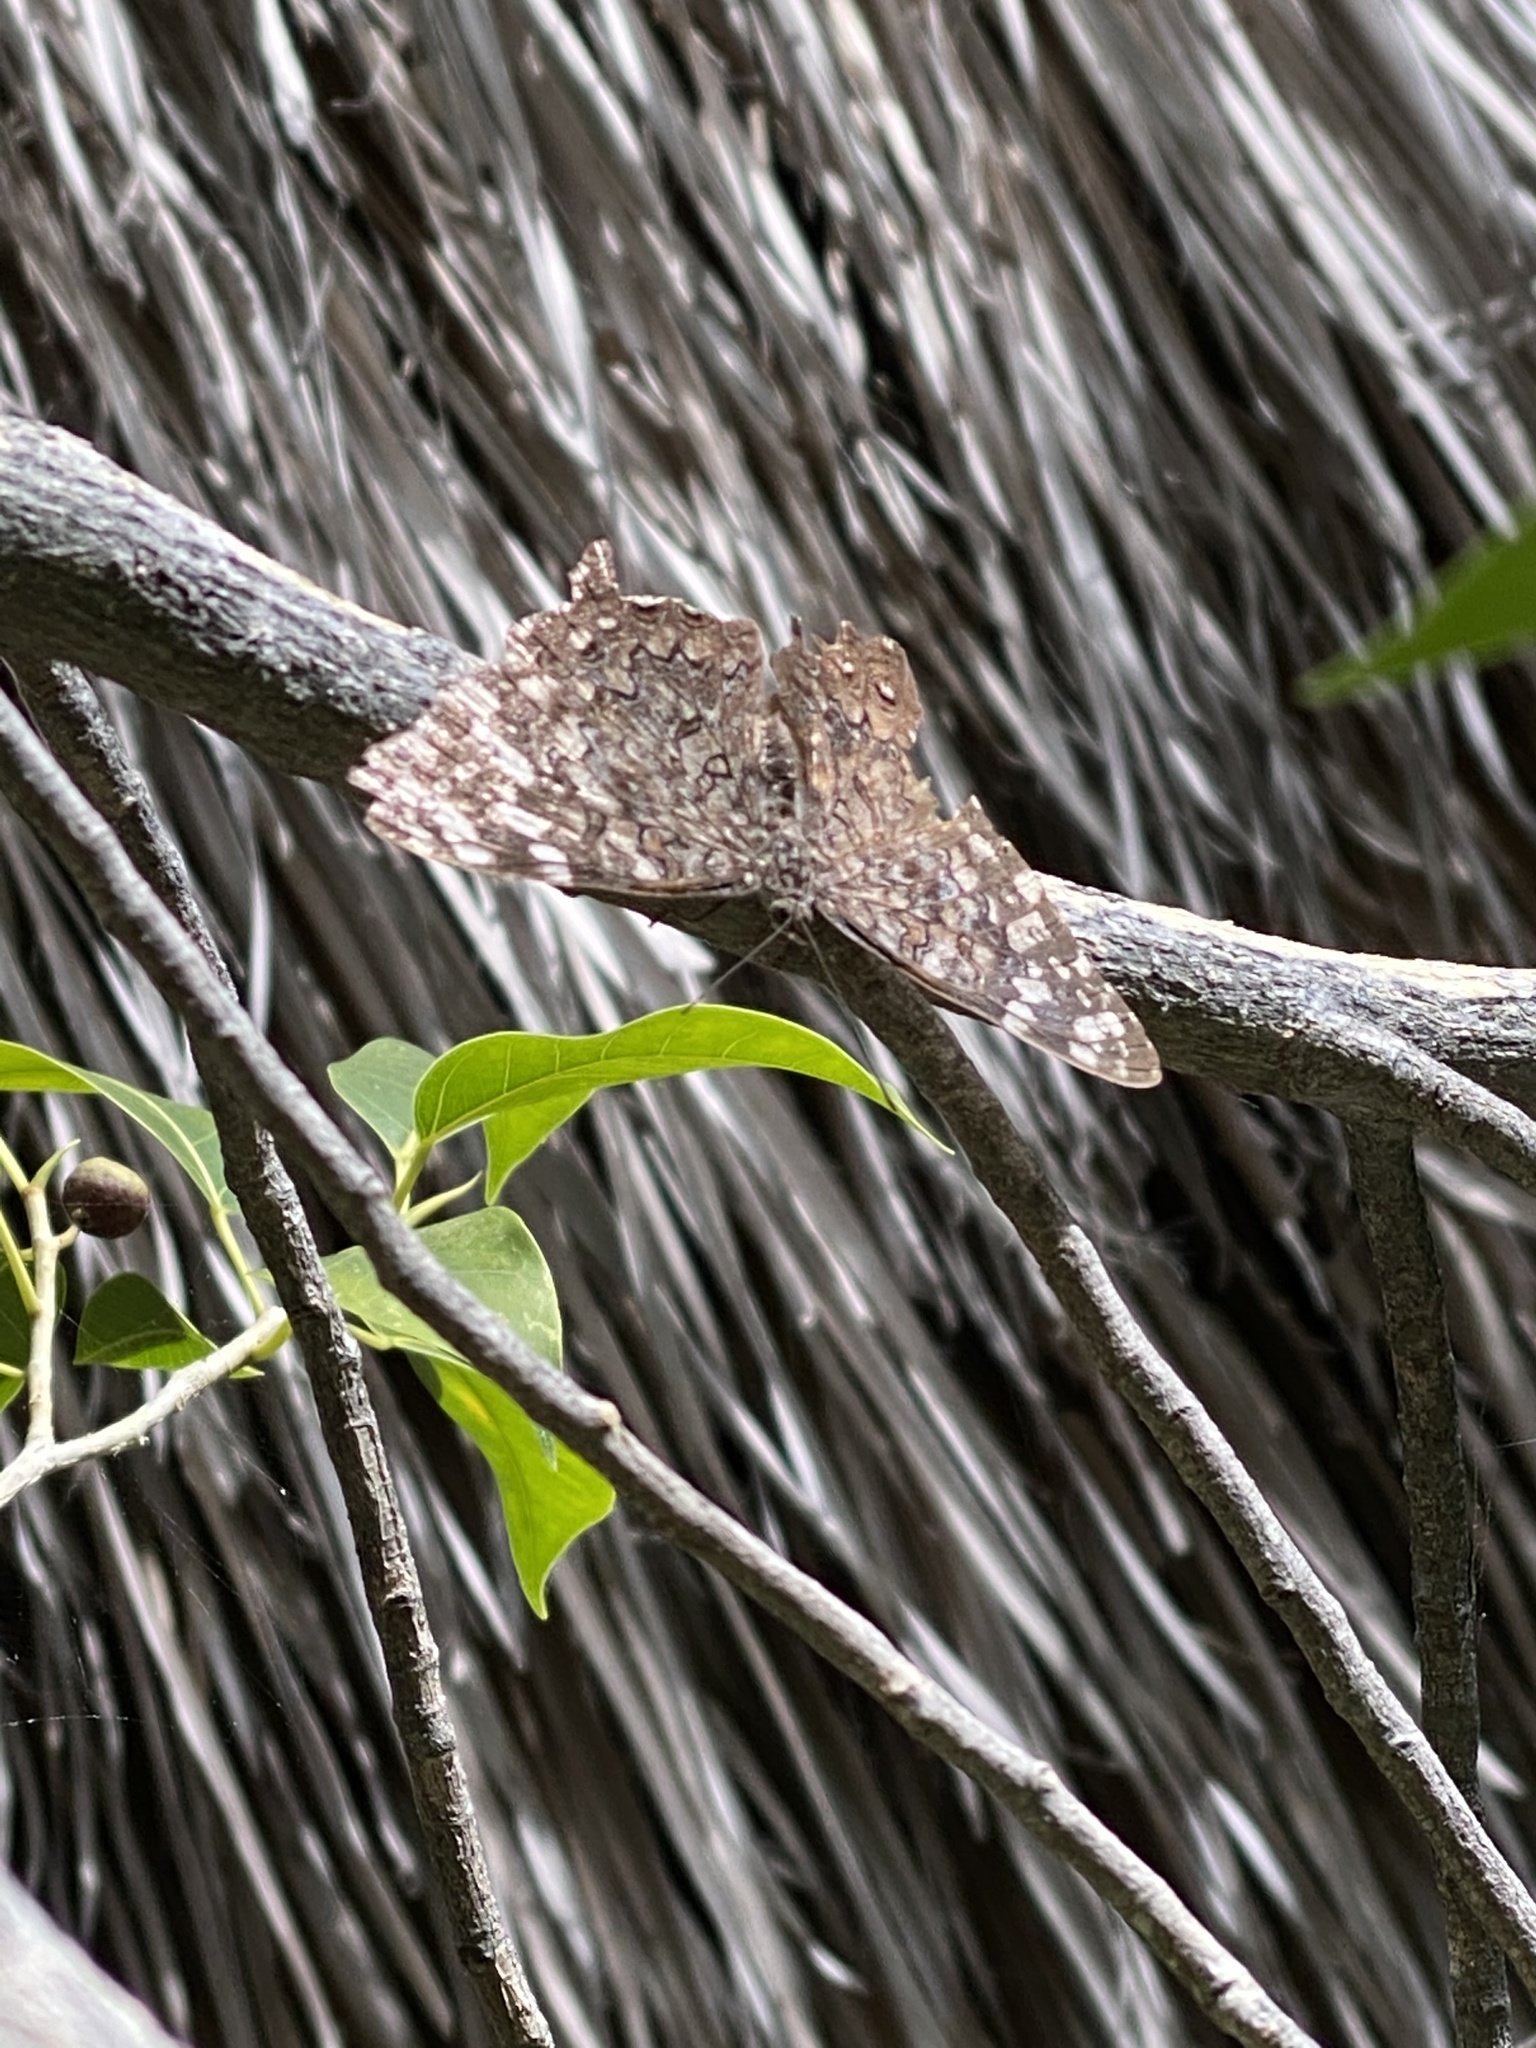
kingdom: Animalia
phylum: Arthropoda
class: Insecta
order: Lepidoptera
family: Nymphalidae
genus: Hamadryas
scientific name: Hamadryas glauconome
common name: Glaucous cracker
